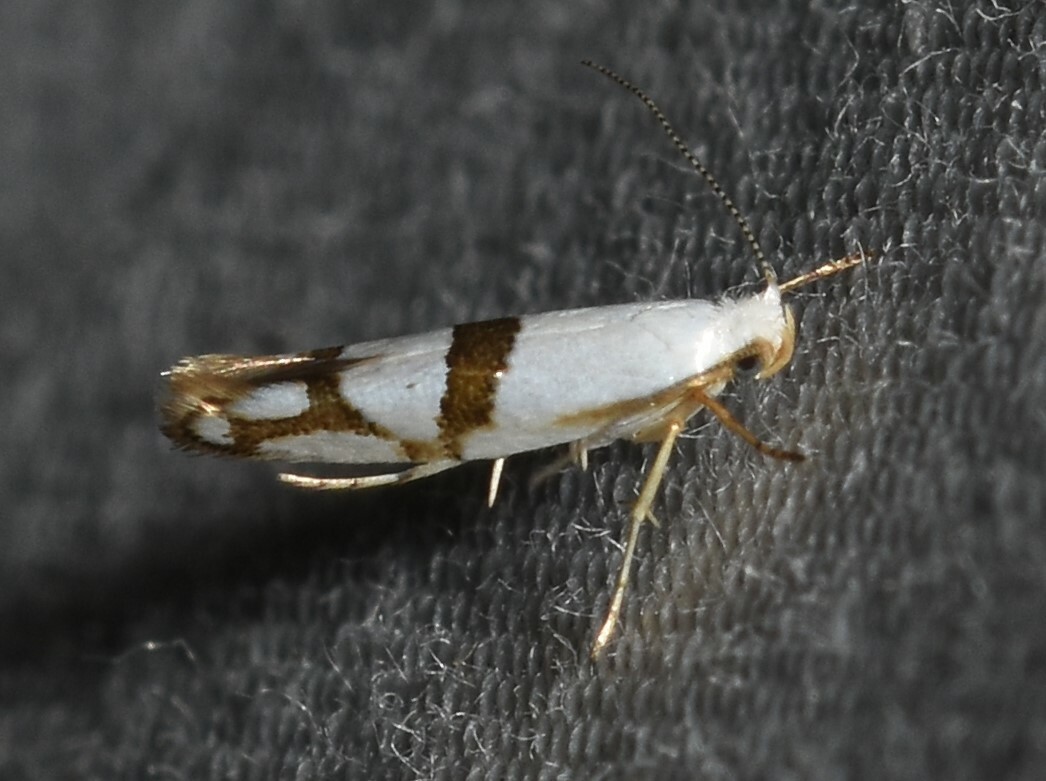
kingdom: Animalia
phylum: Arthropoda
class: Insecta
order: Lepidoptera
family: Argyresthiidae
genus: Argyresthia
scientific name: Argyresthia oreasella
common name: Cherry shoot borer moth
